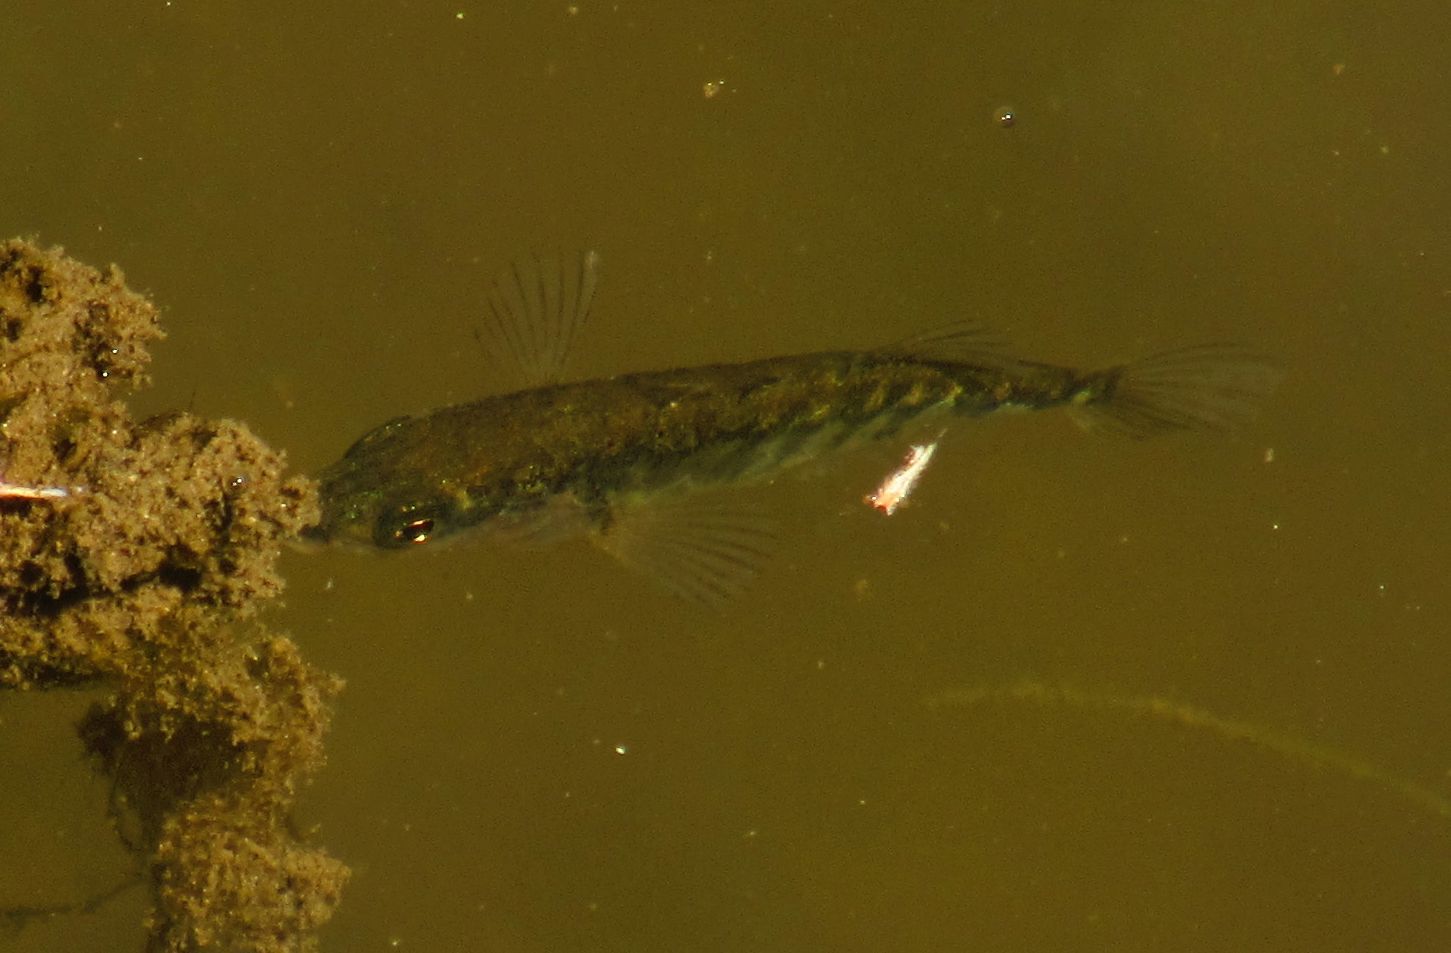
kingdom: Animalia
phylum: Chordata
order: Gasterosteiformes
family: Gasterosteidae
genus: Gasterosteus
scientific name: Gasterosteus aculeatus
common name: Three-spined stickleback
